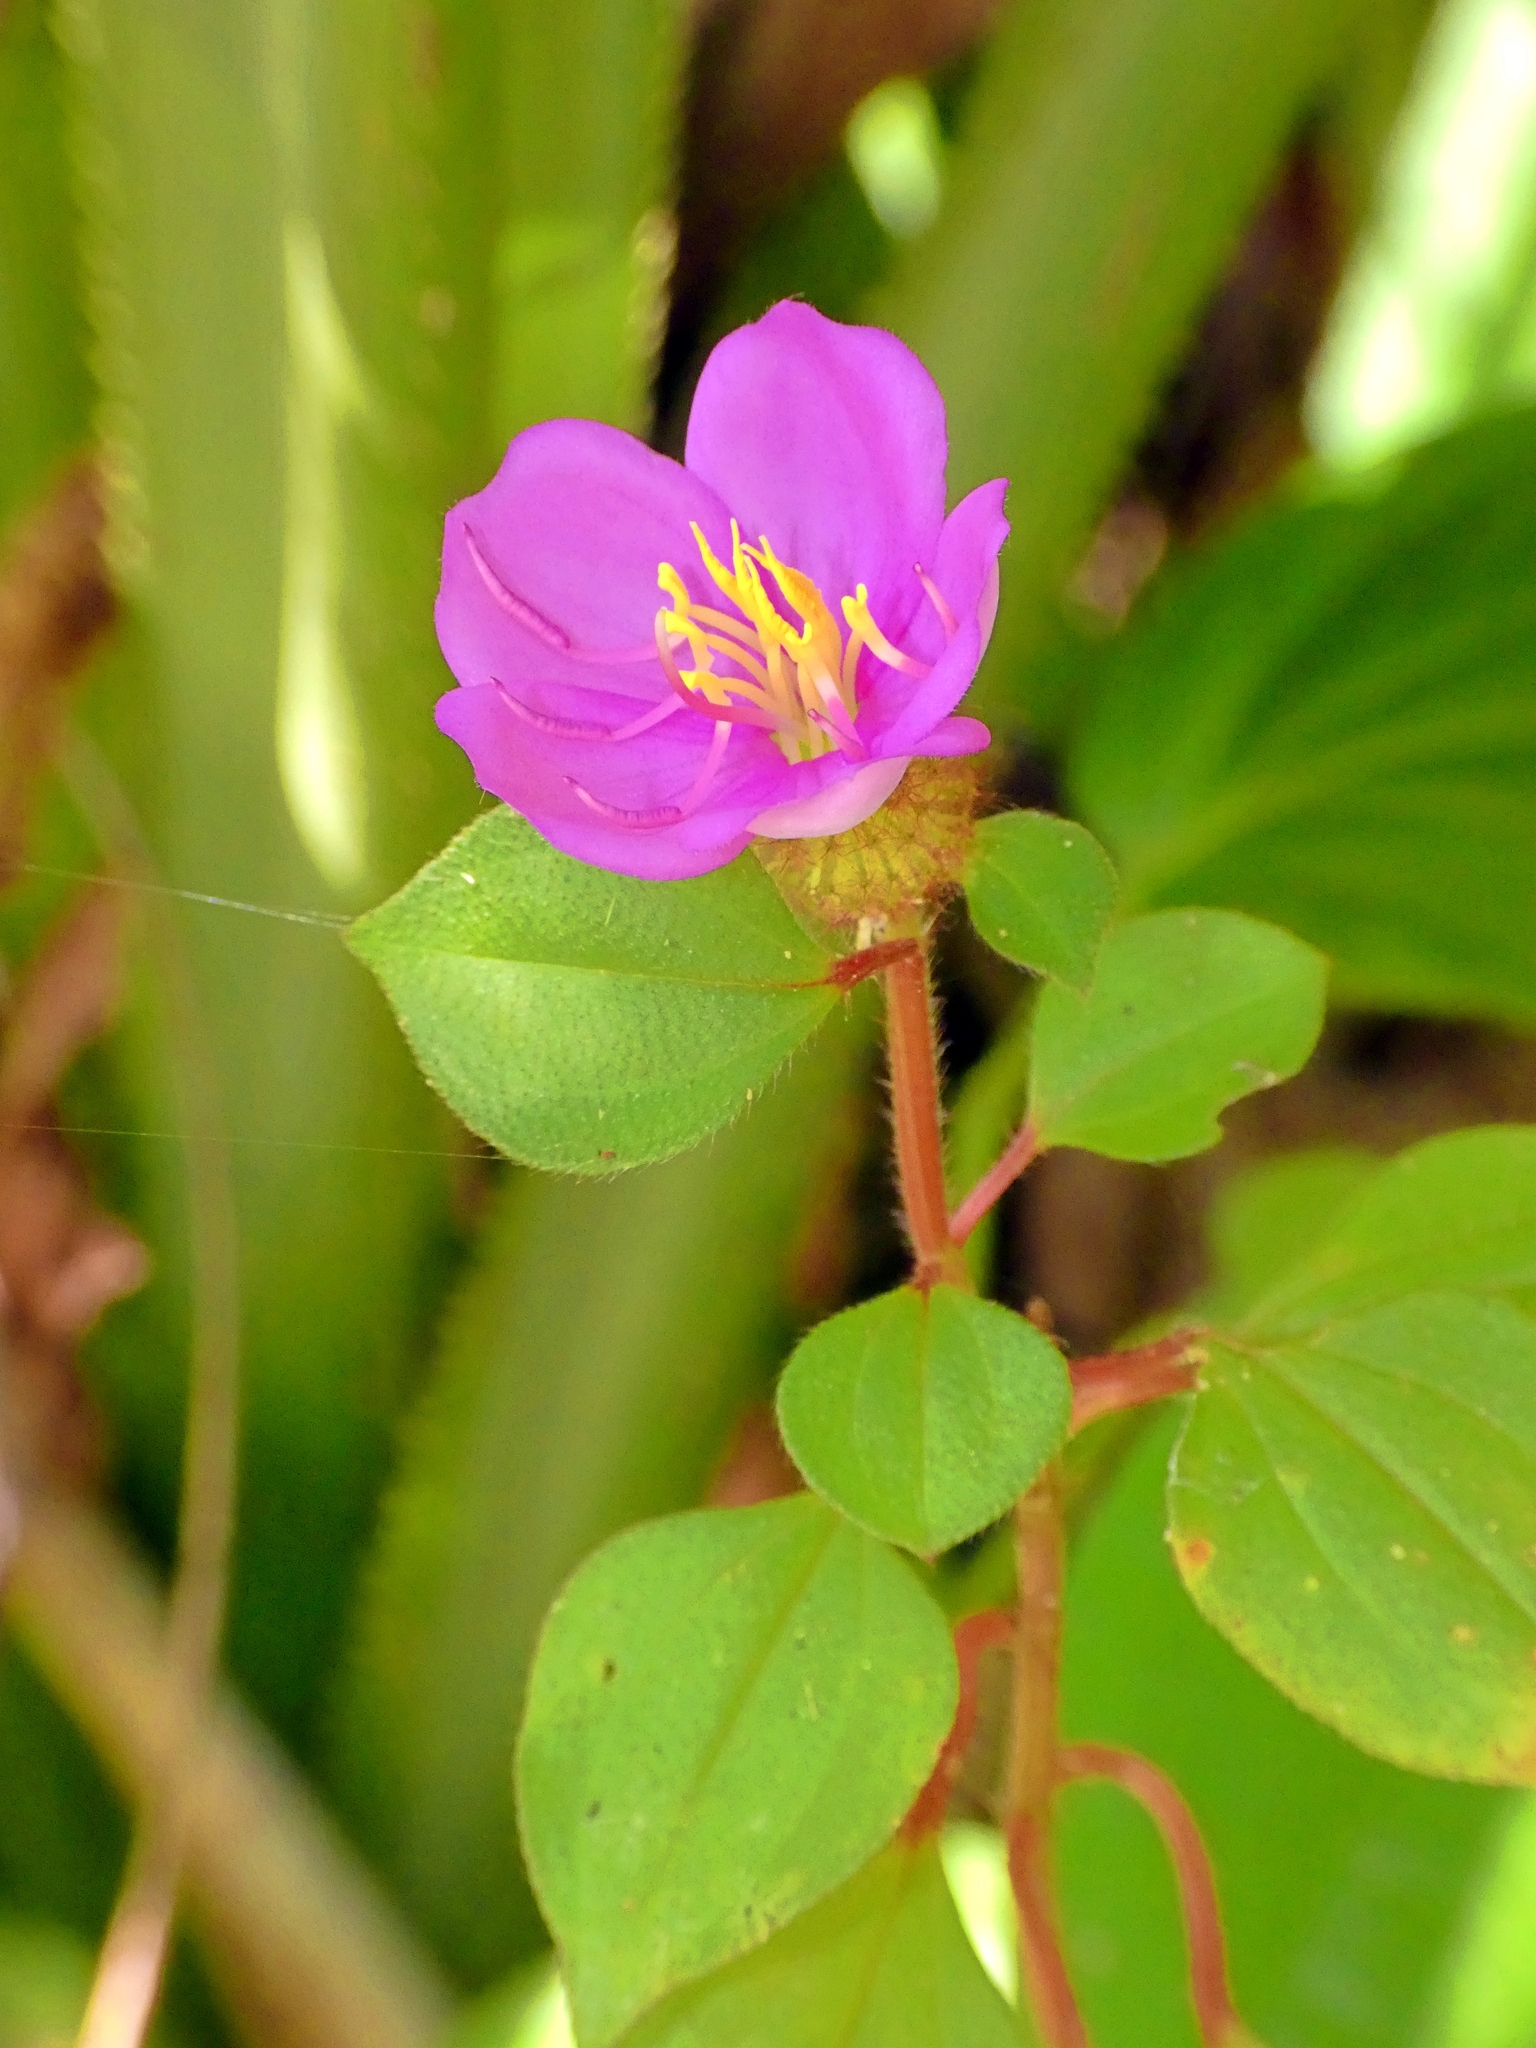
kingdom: Plantae
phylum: Tracheophyta
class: Magnoliopsida
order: Myrtales
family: Melastomataceae
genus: Heterotis
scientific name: Heterotis rotundifolia
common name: Pinklady
